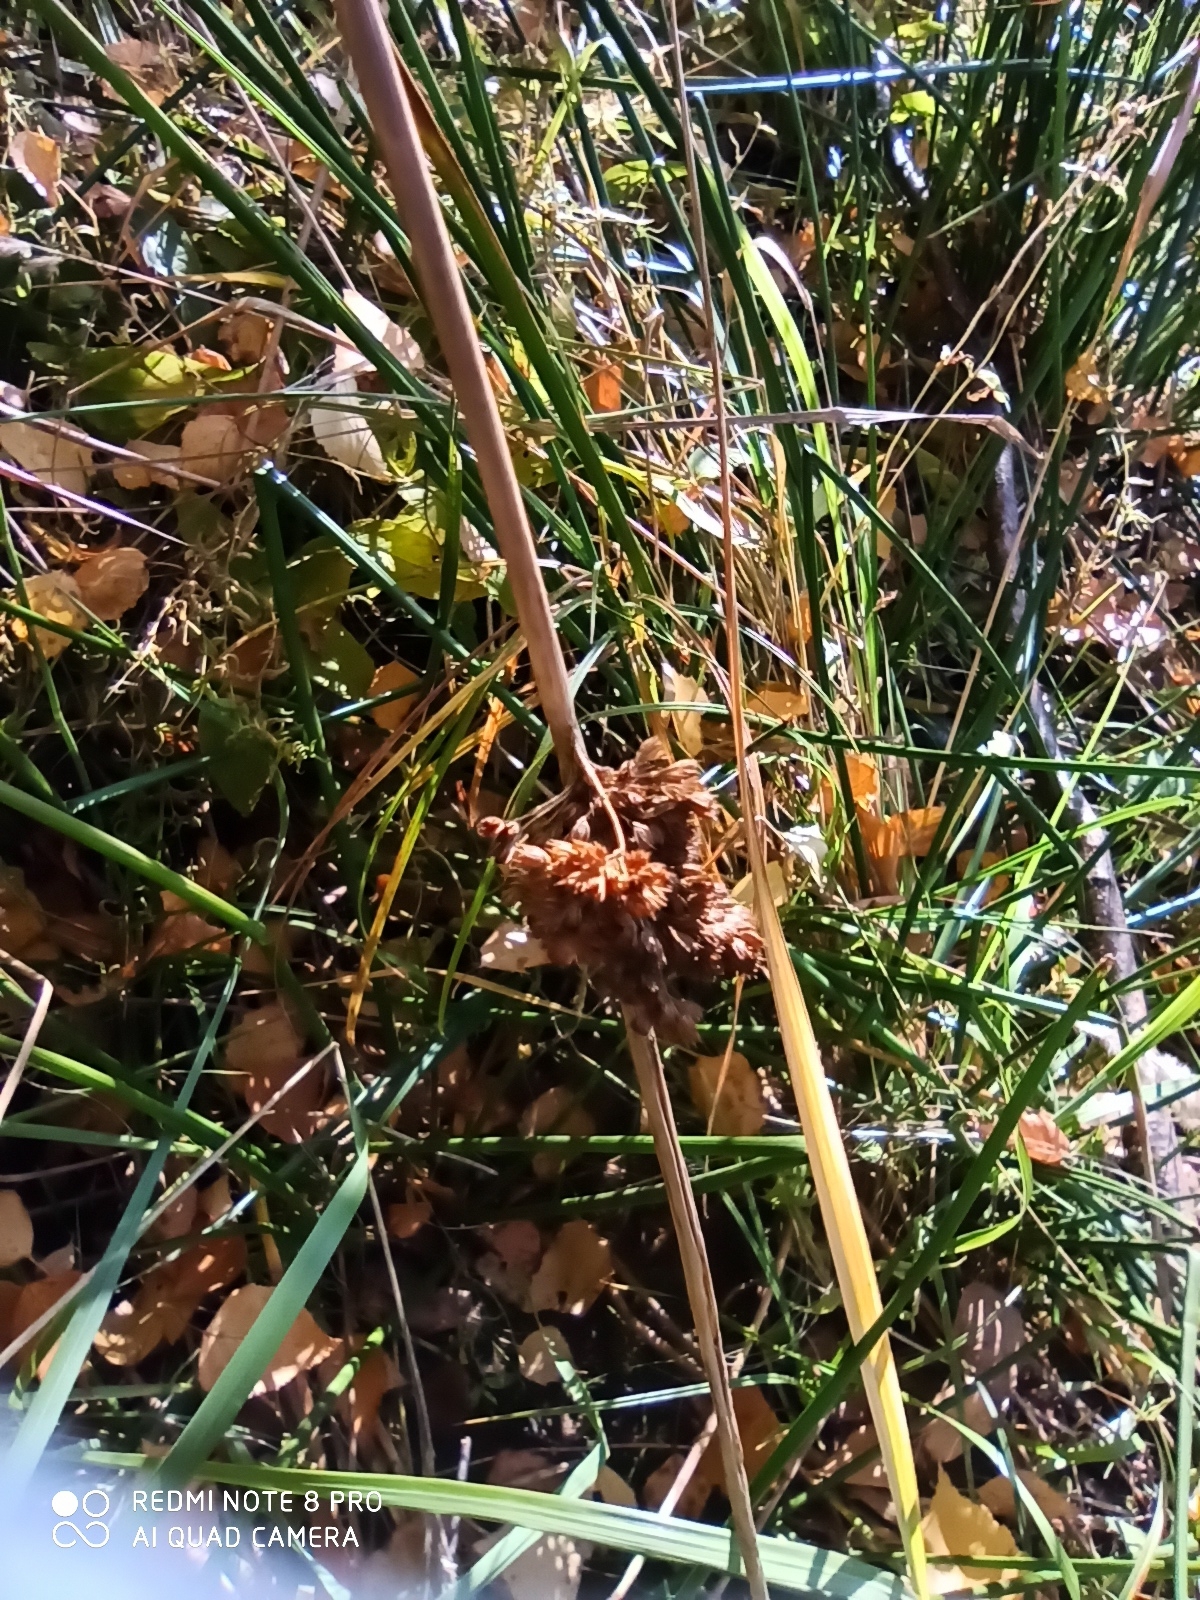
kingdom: Plantae
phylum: Tracheophyta
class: Liliopsida
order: Poales
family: Juncaceae
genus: Juncus
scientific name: Juncus effusus
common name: Soft rush
